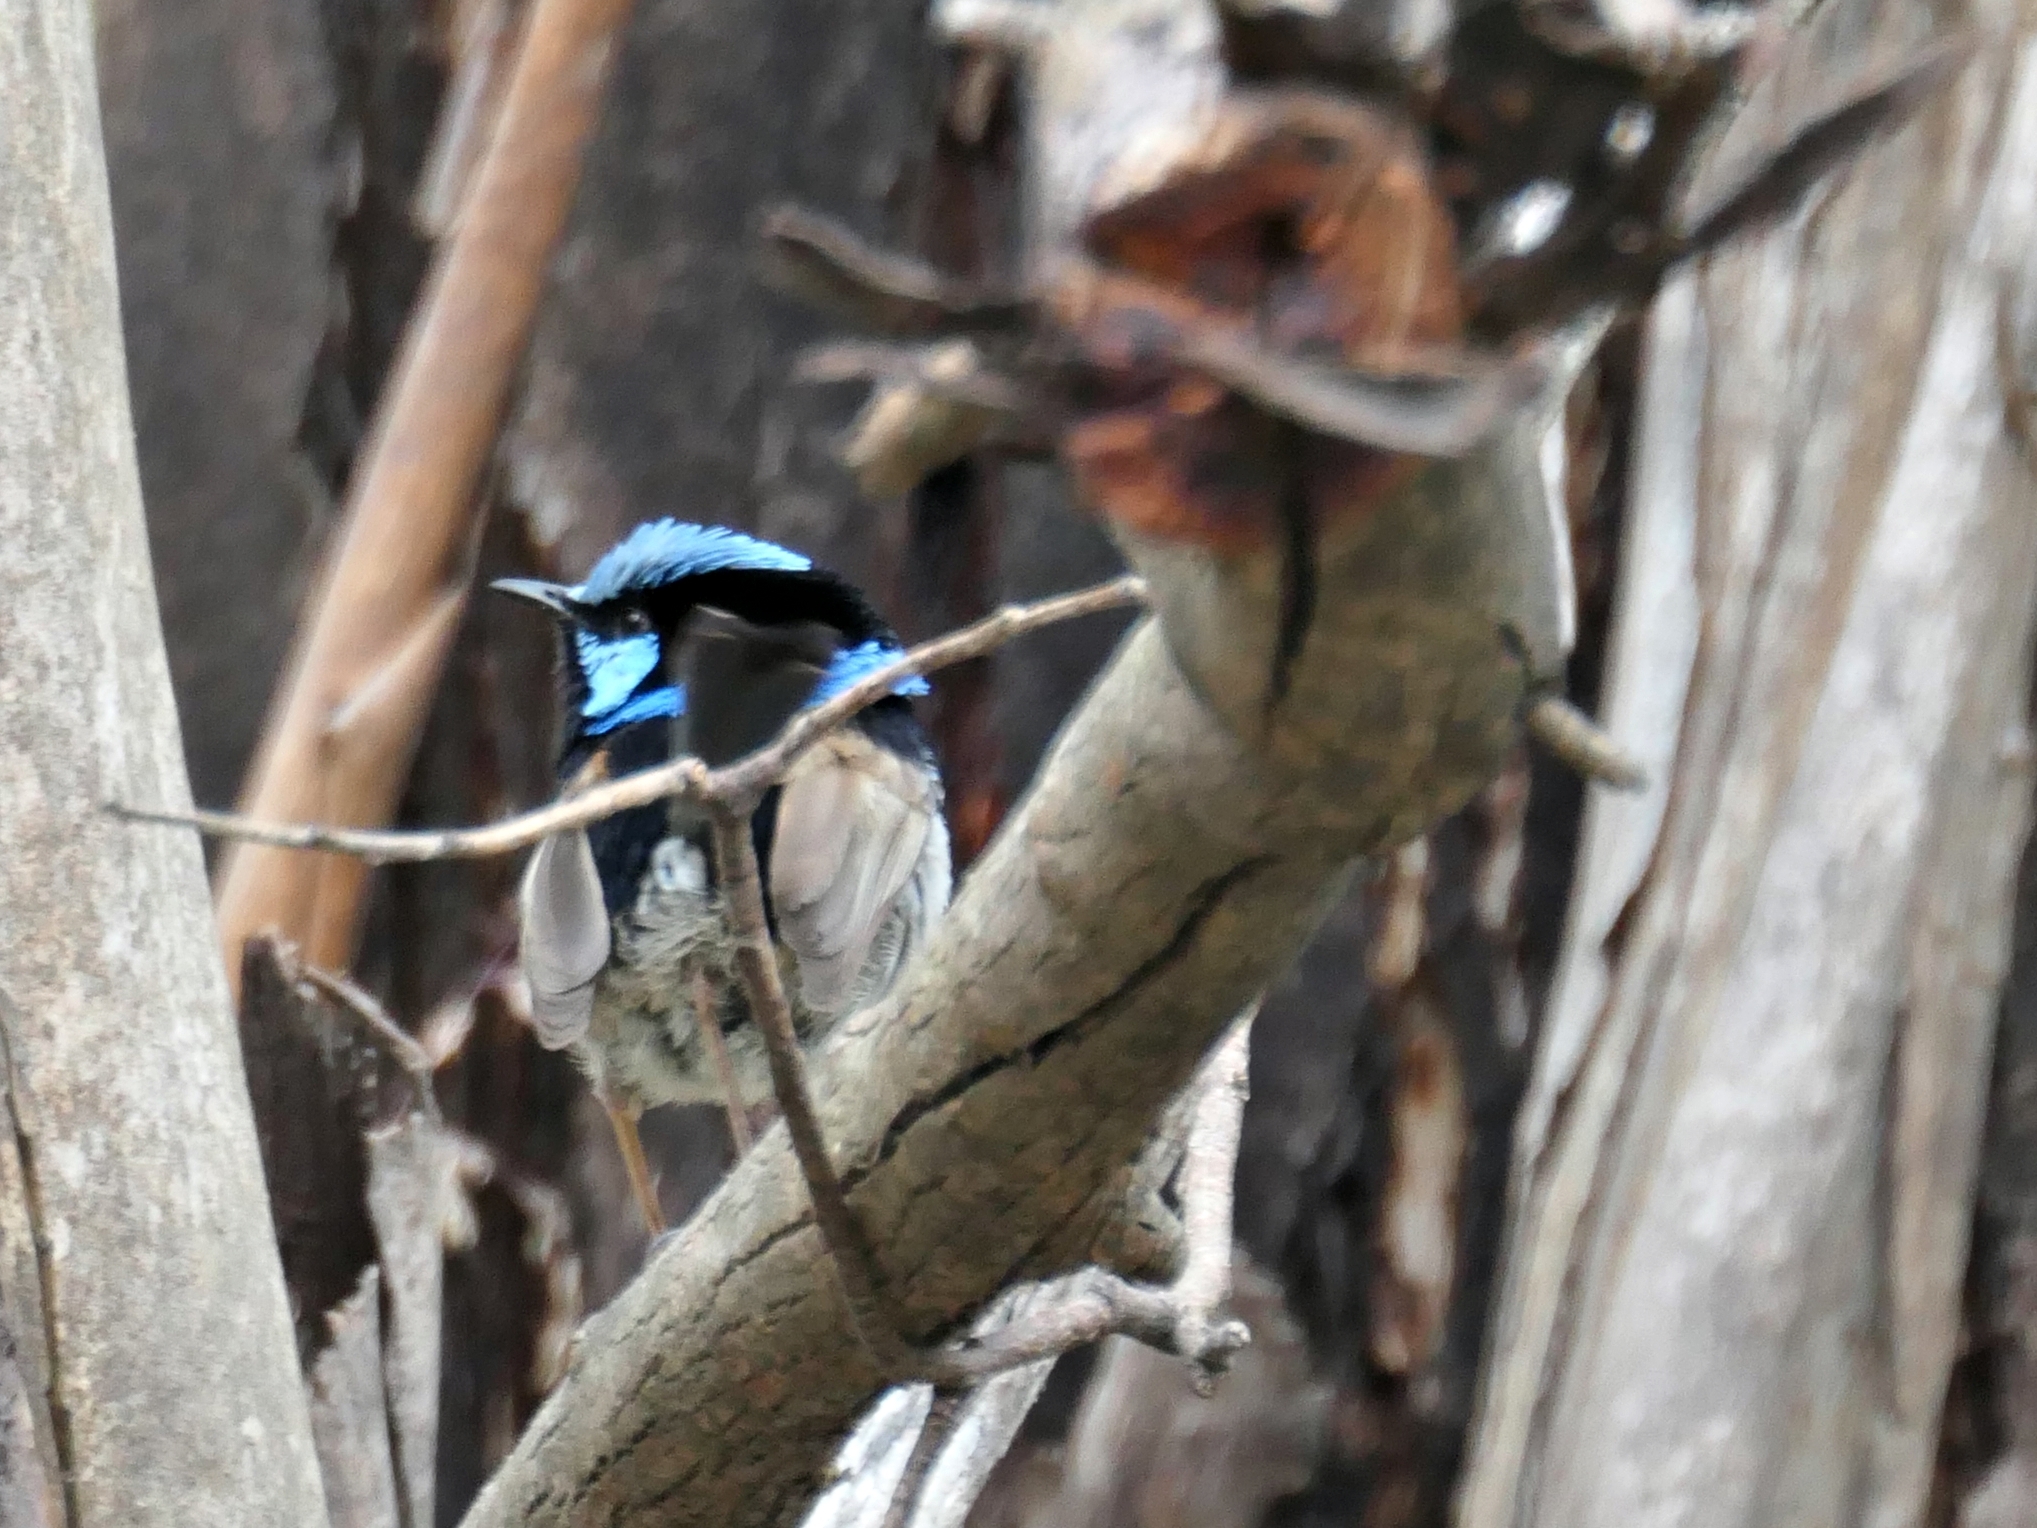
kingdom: Animalia
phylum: Chordata
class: Aves
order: Passeriformes
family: Maluridae
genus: Malurus
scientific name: Malurus cyaneus
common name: Superb fairywren
